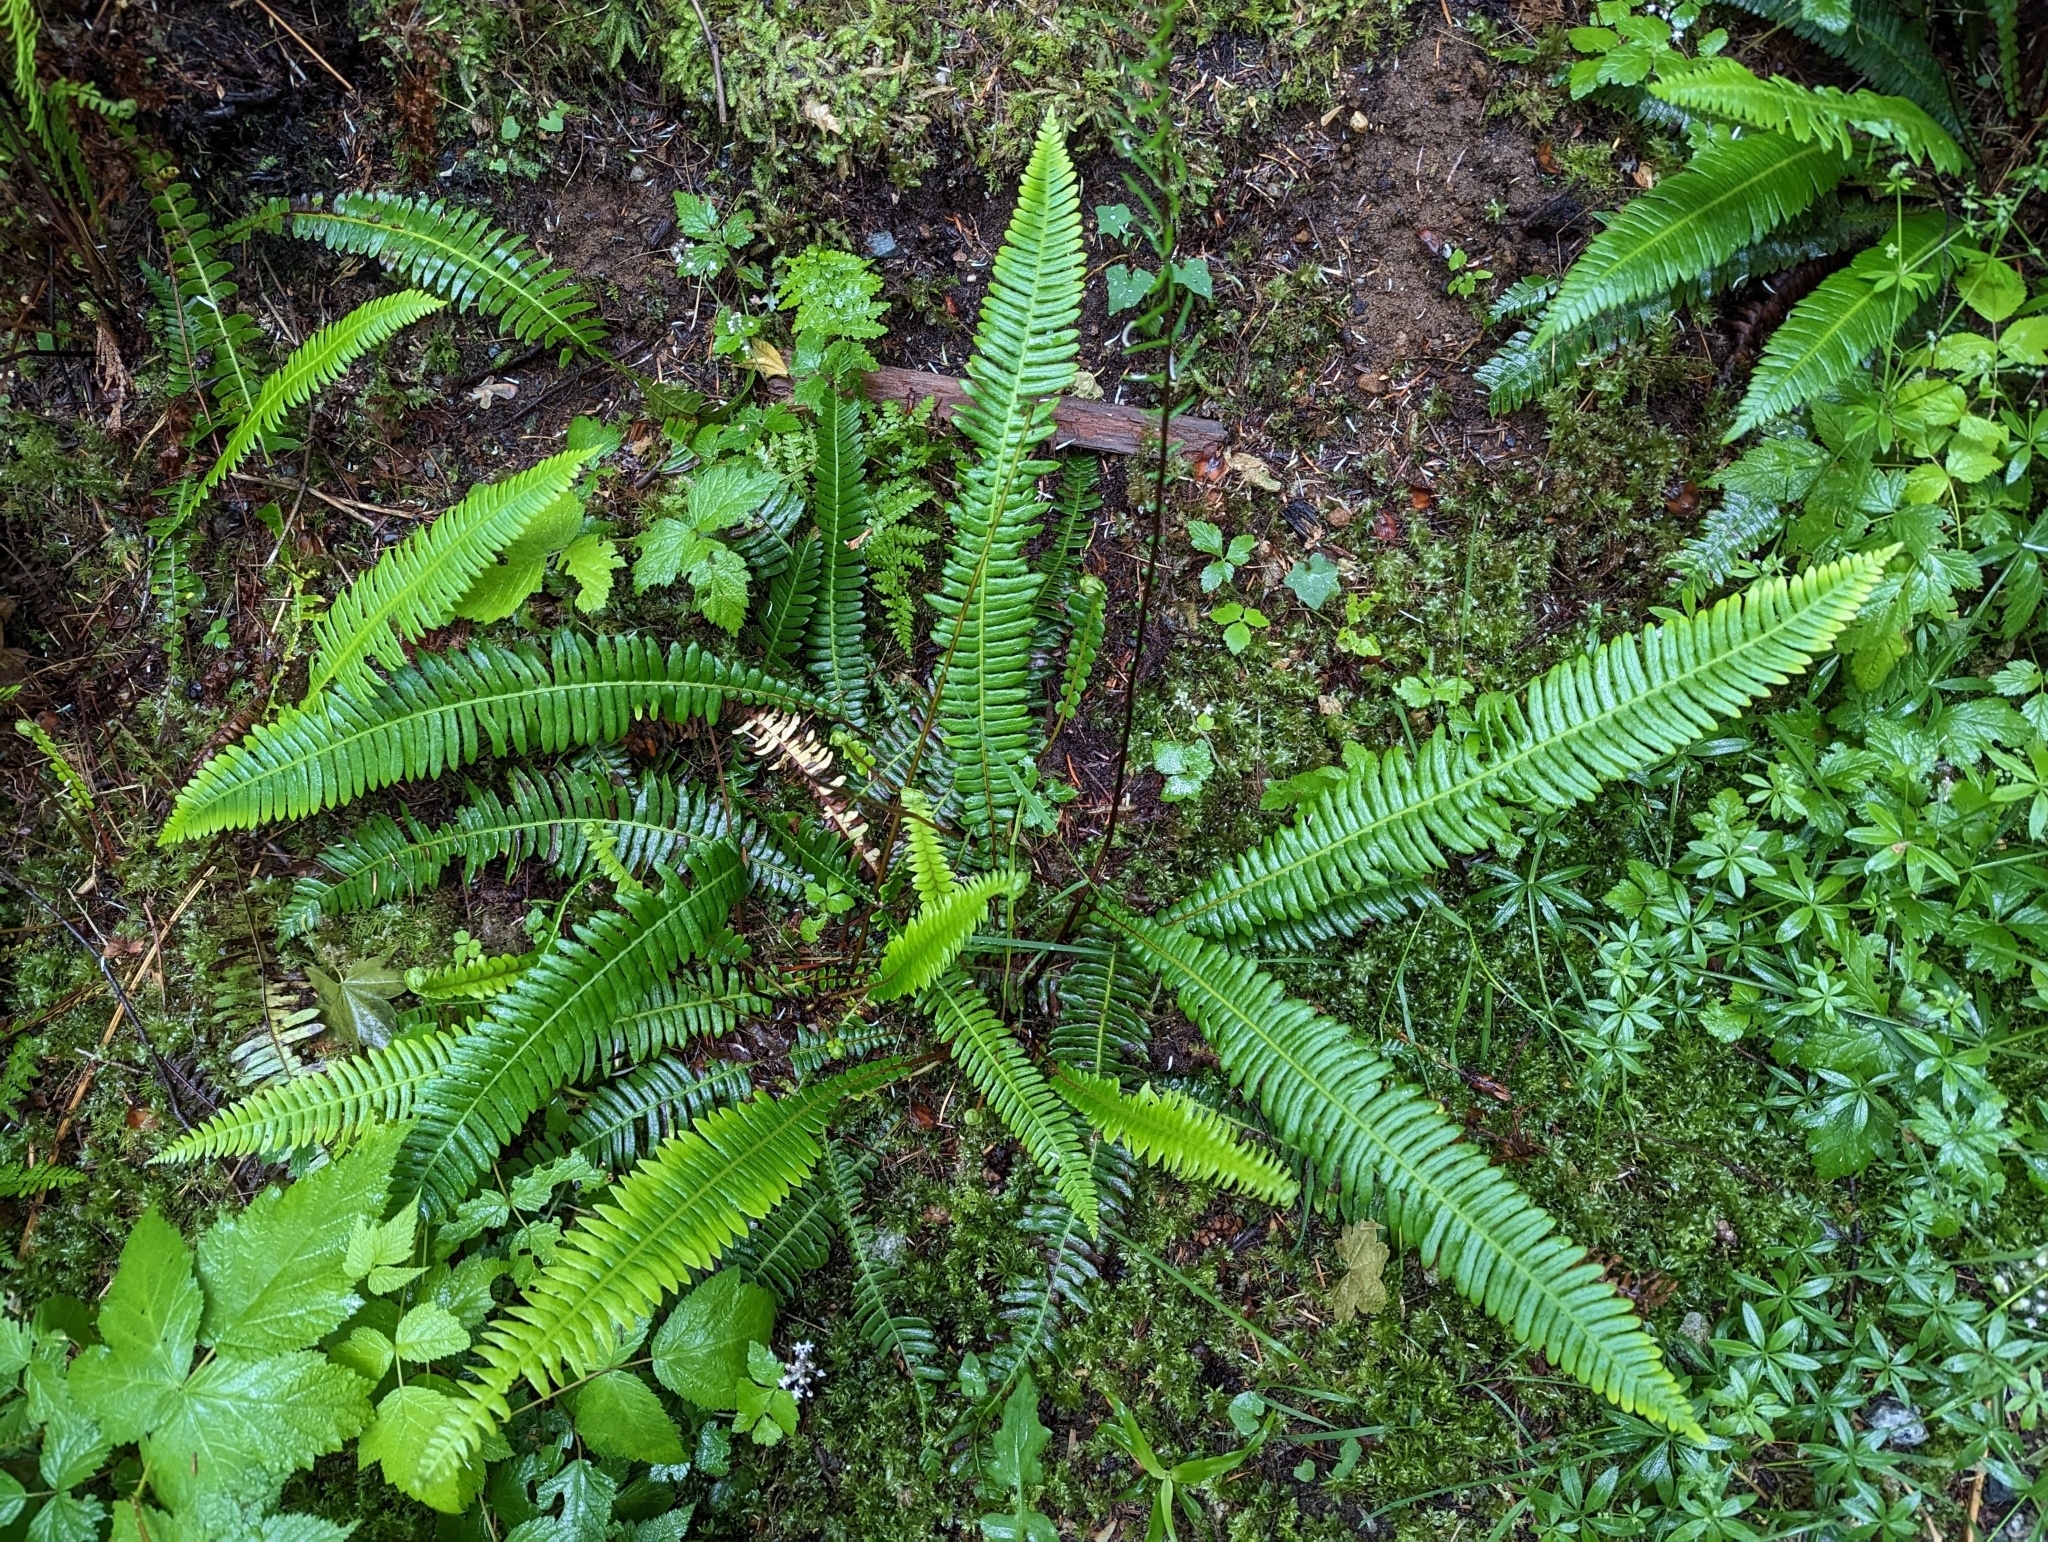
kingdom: Plantae
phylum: Tracheophyta
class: Polypodiopsida
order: Polypodiales
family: Blechnaceae
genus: Struthiopteris
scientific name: Struthiopteris spicant
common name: Deer fern
